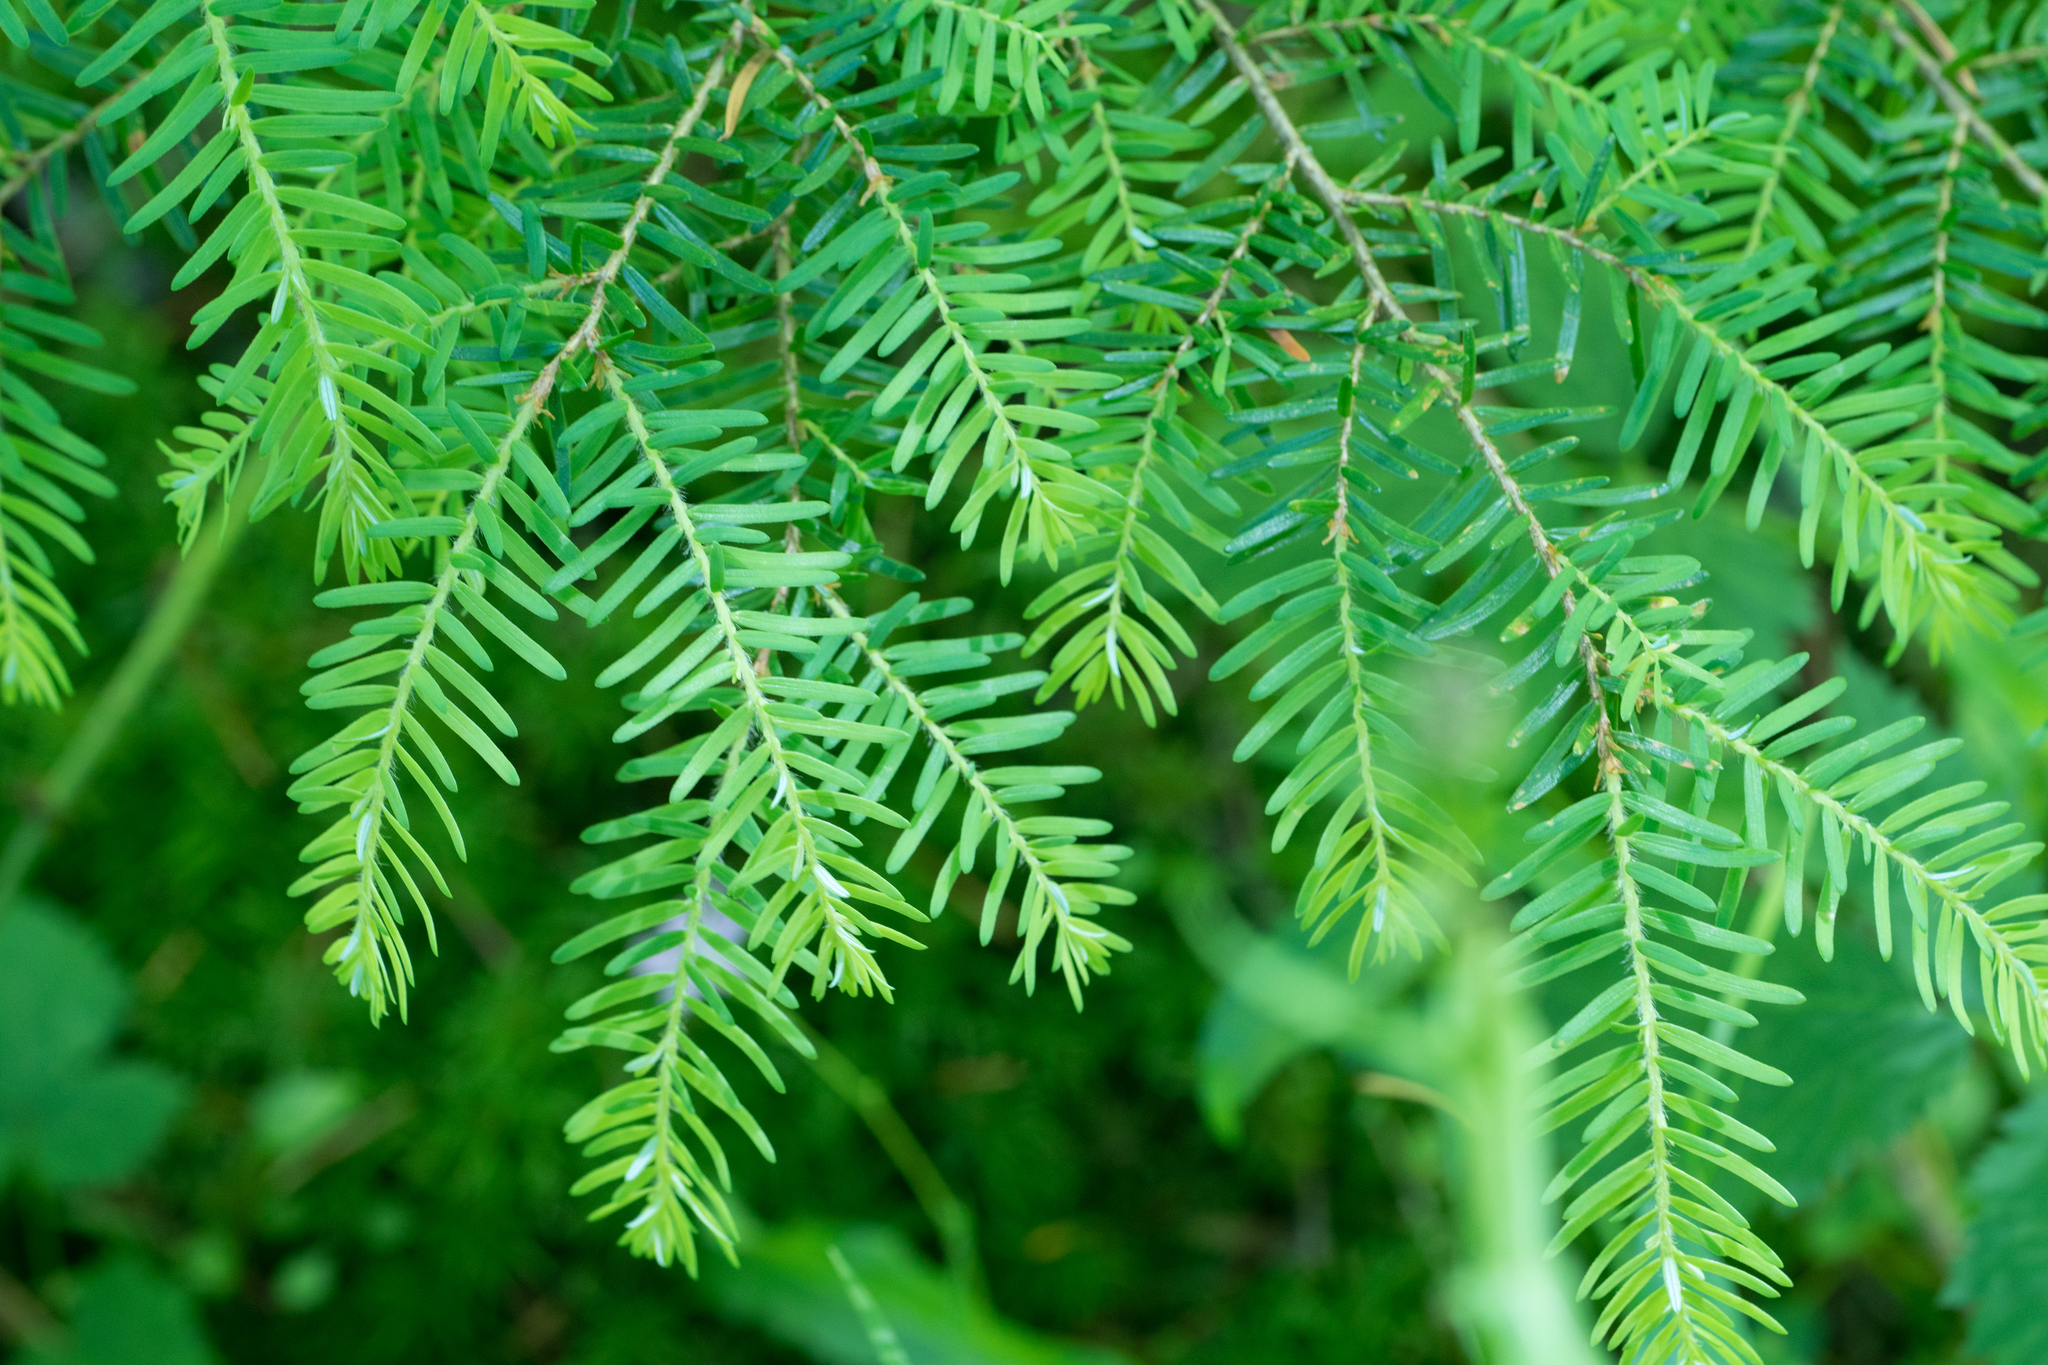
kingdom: Plantae
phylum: Tracheophyta
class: Pinopsida
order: Pinales
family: Pinaceae
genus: Tsuga
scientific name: Tsuga heterophylla
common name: Western hemlock
